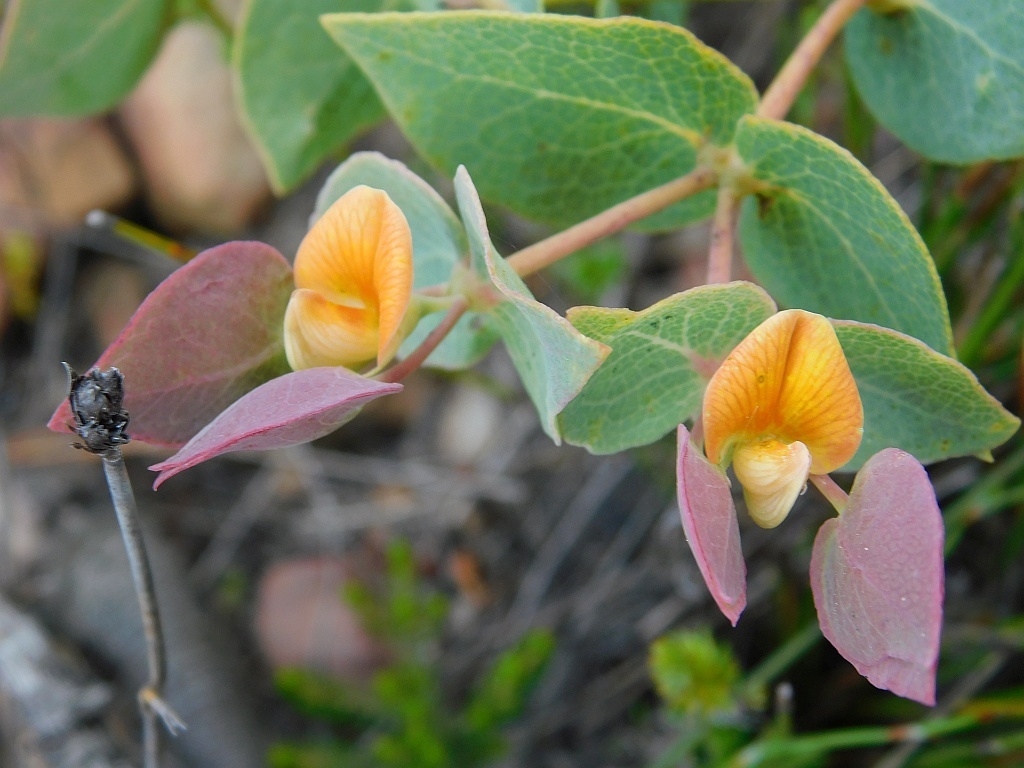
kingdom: Plantae
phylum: Tracheophyta
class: Magnoliopsida
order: Fabales
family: Fabaceae
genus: Rafnia
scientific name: Rafnia acuminata
